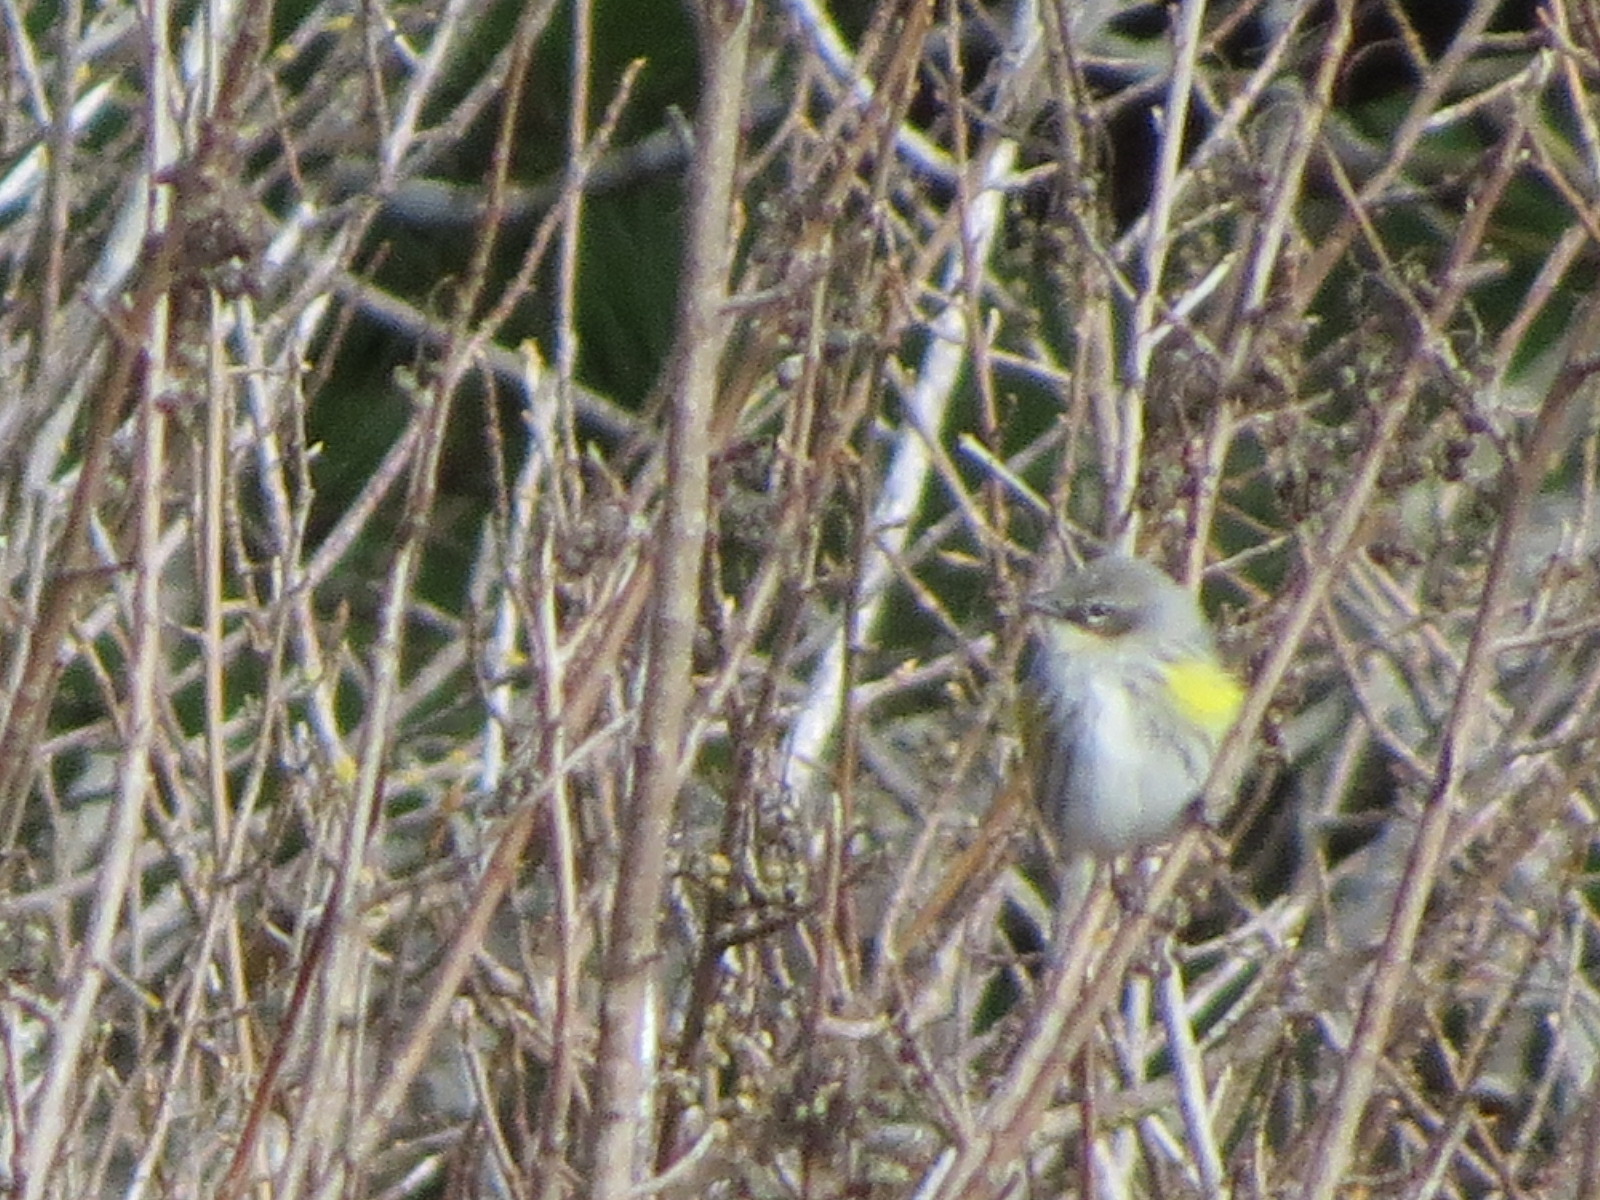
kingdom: Animalia
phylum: Chordata
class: Aves
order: Passeriformes
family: Parulidae
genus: Setophaga
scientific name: Setophaga coronata
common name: Myrtle warbler
